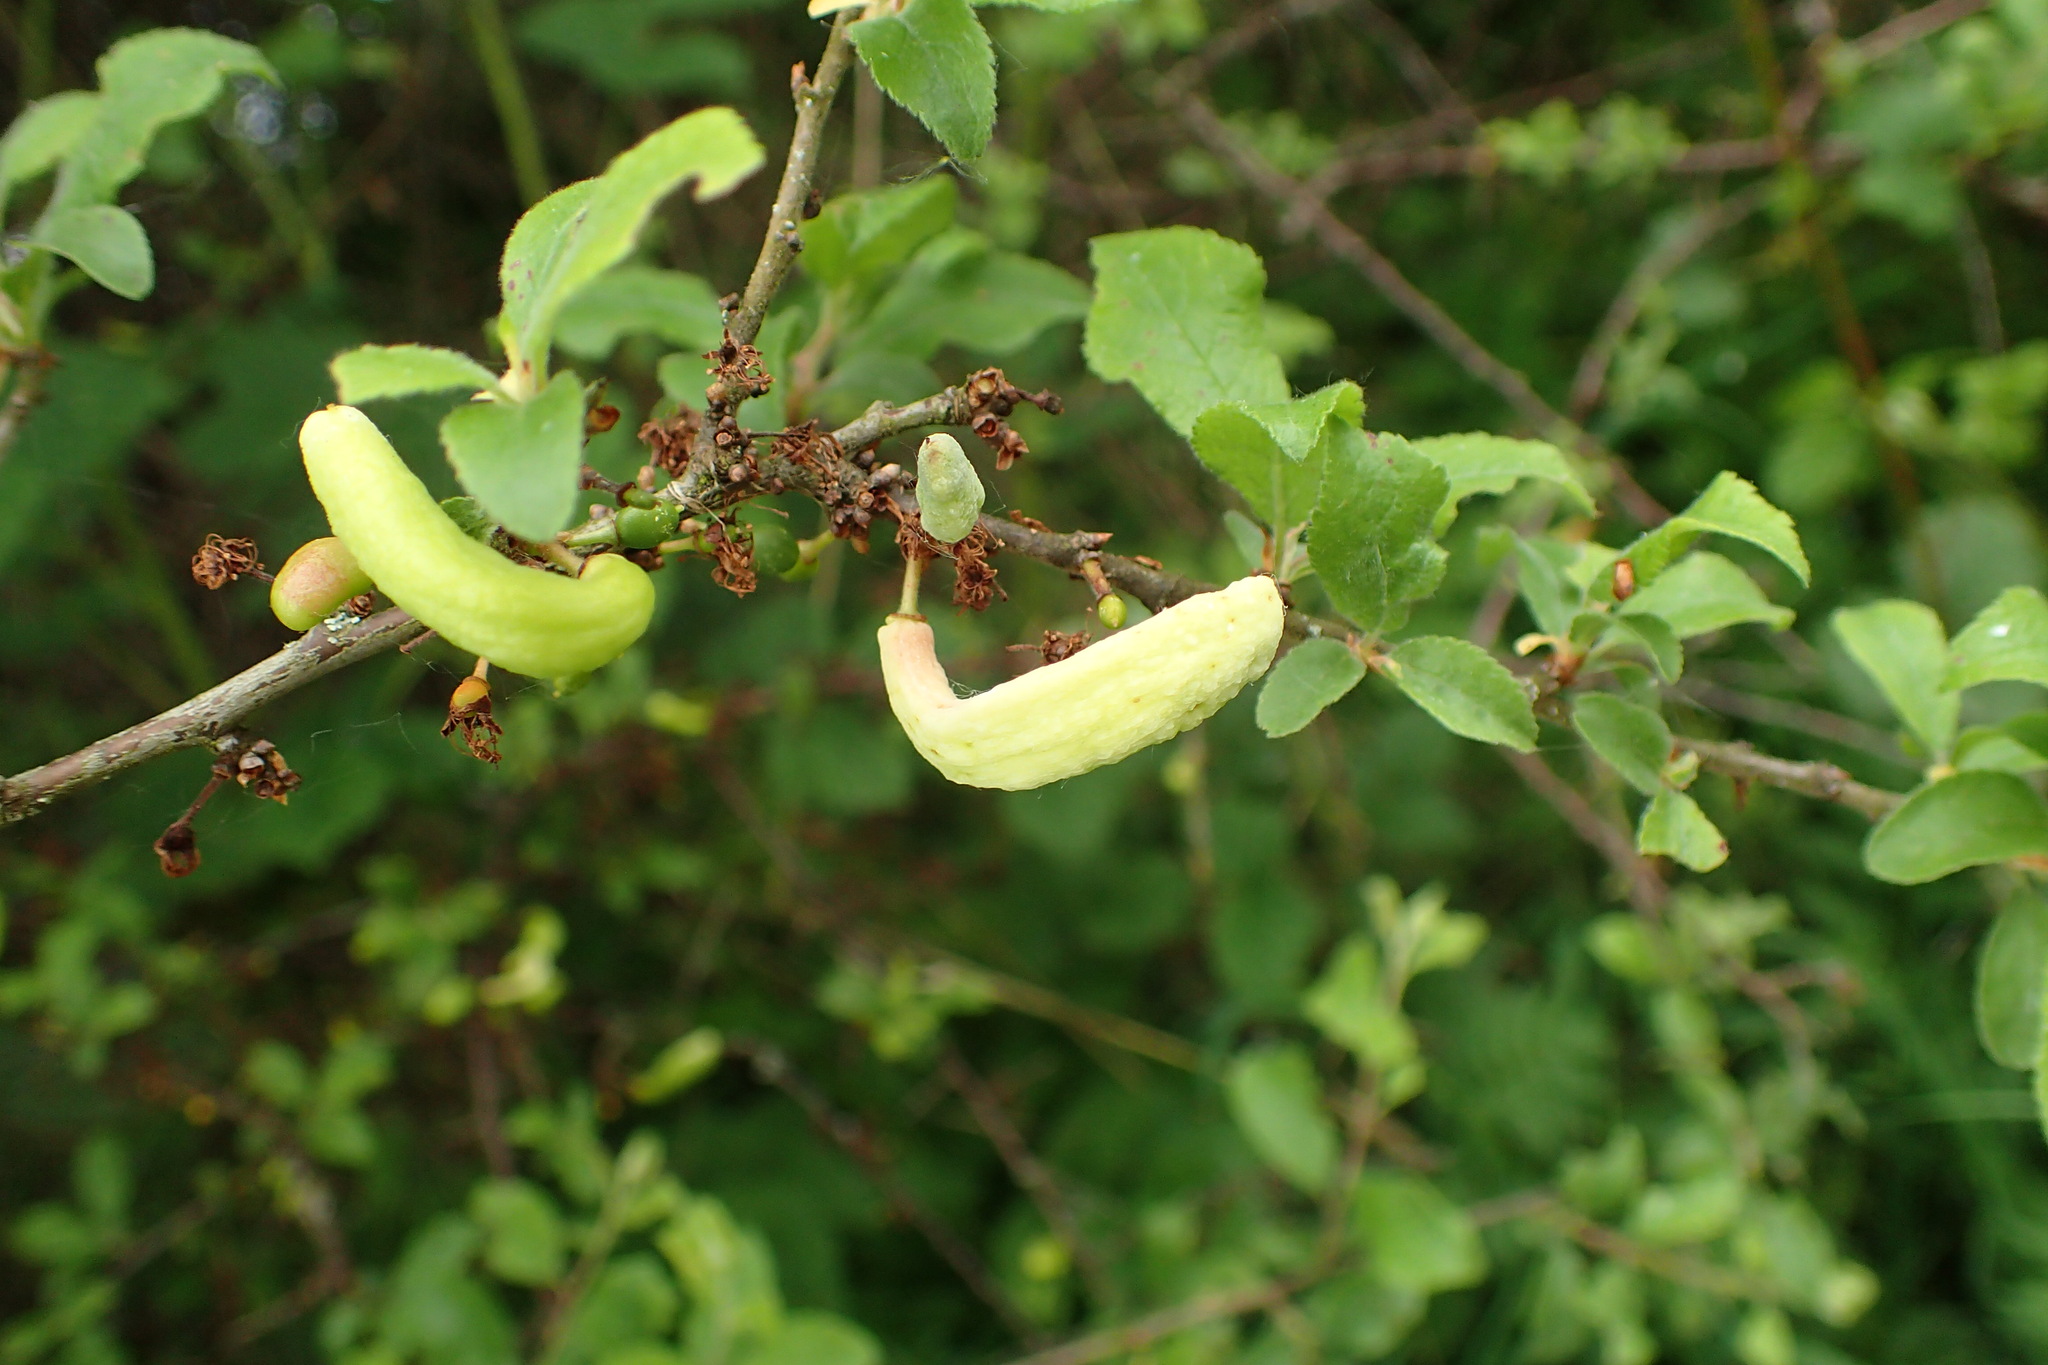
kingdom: Fungi
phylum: Ascomycota
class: Taphrinomycetes
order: Taphrinales
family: Taphrinaceae
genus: Taphrina
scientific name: Taphrina pruni
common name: Pocket plum
